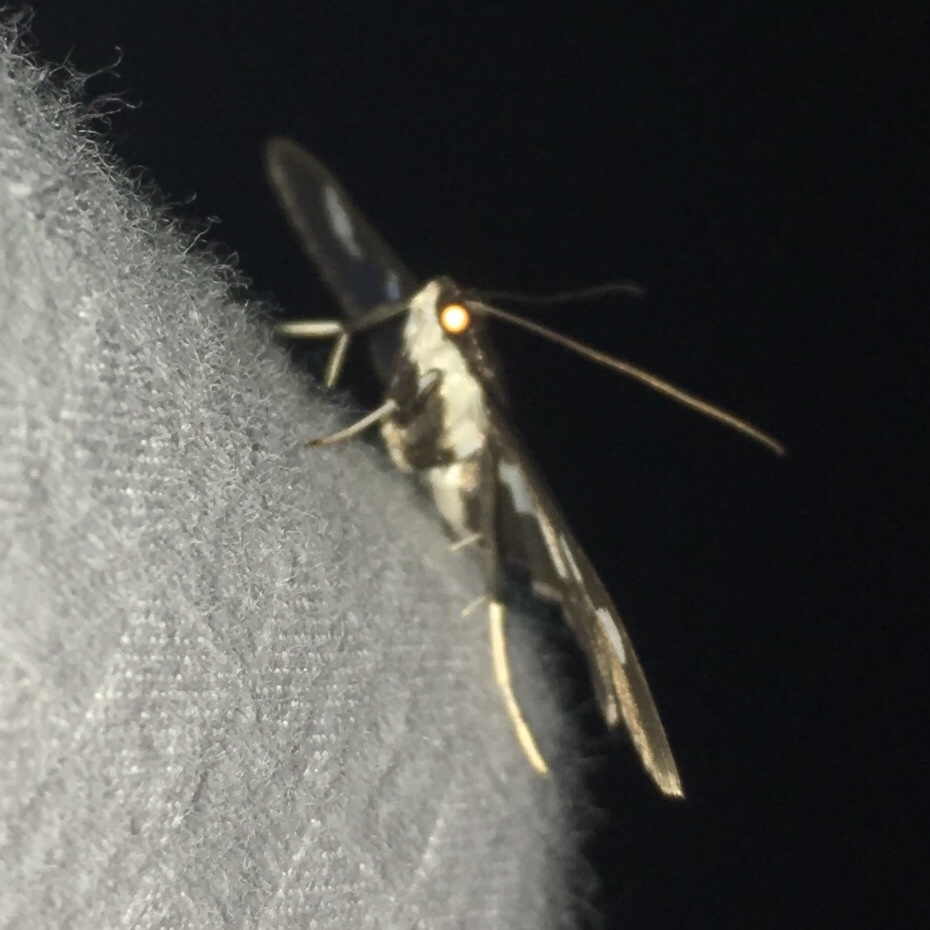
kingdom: Animalia
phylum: Arthropoda
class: Insecta
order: Lepidoptera
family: Crambidae
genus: Desmia
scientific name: Desmia funeralis
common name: Grape leaf folder moth
